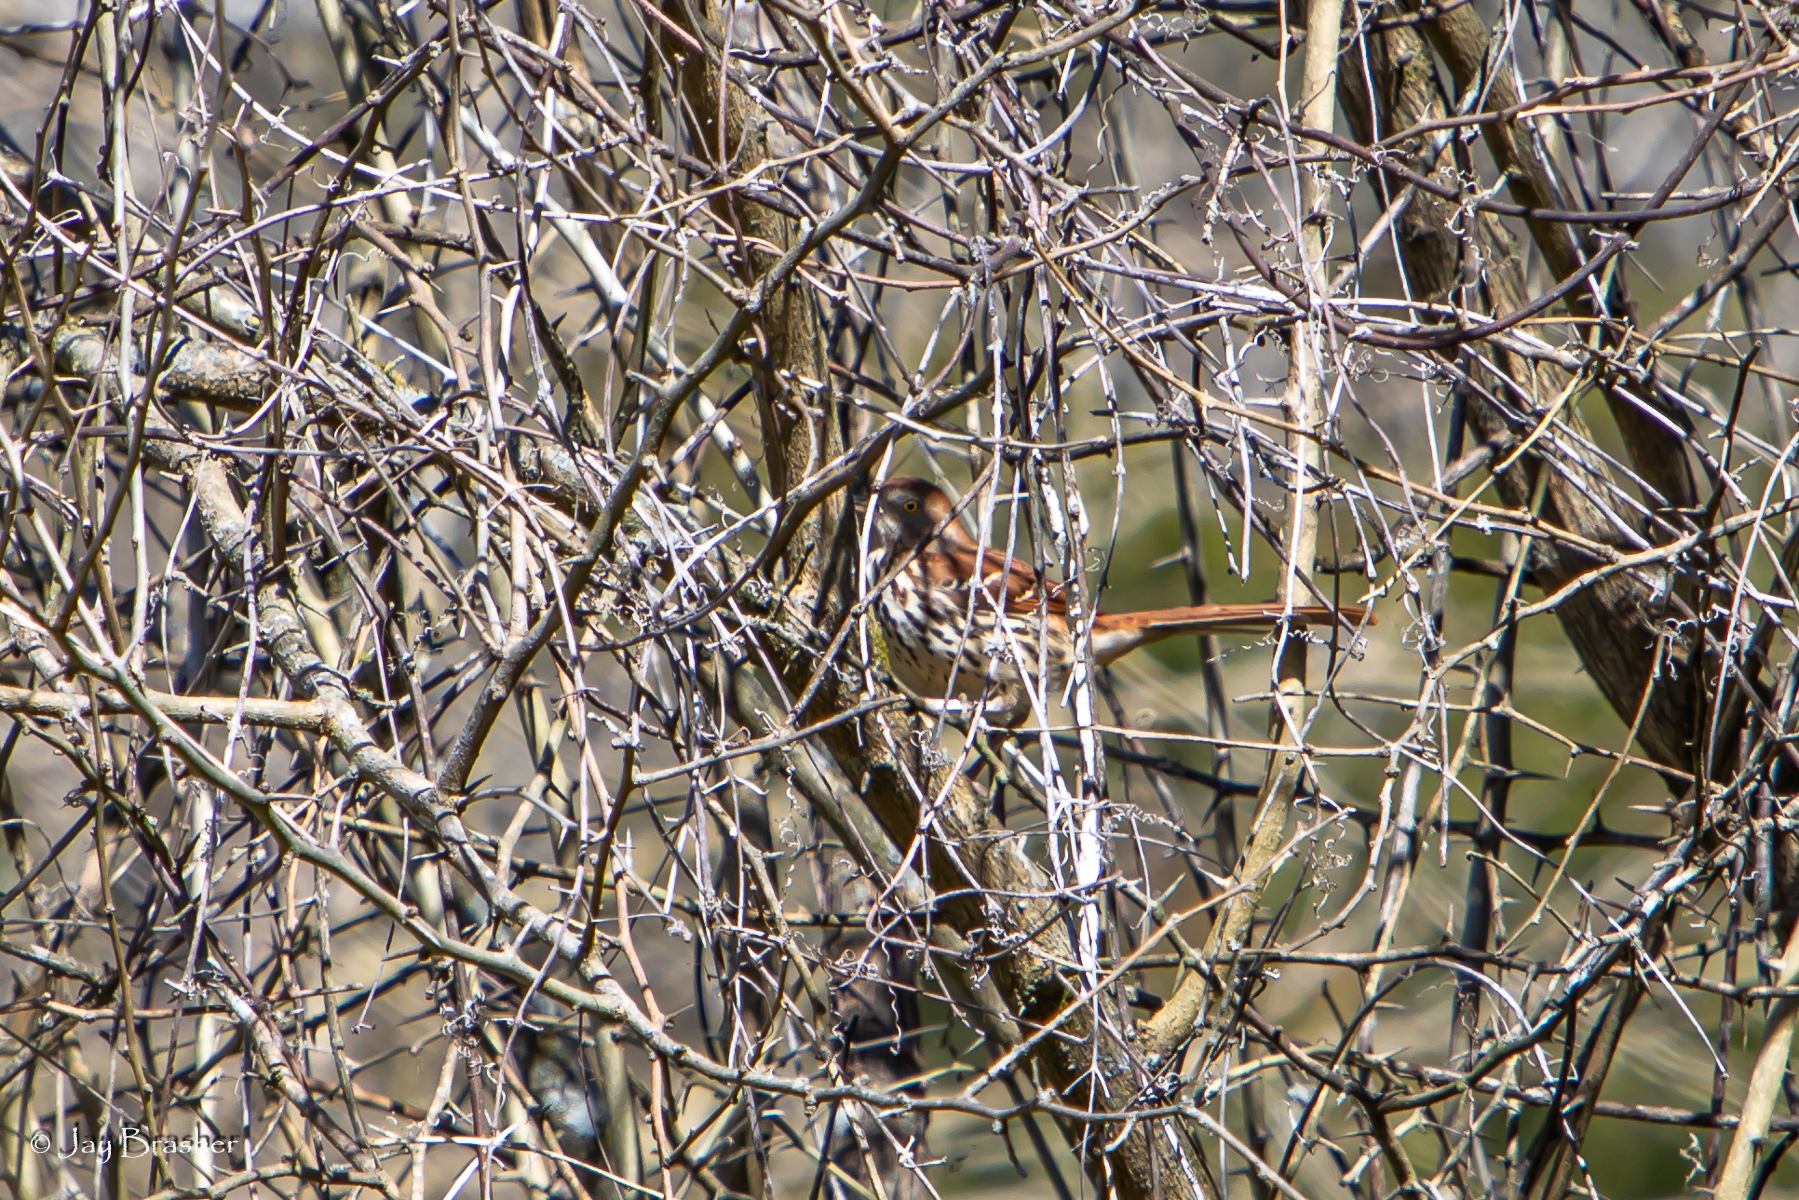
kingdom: Animalia
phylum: Chordata
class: Aves
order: Passeriformes
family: Mimidae
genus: Toxostoma
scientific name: Toxostoma rufum
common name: Brown thrasher
